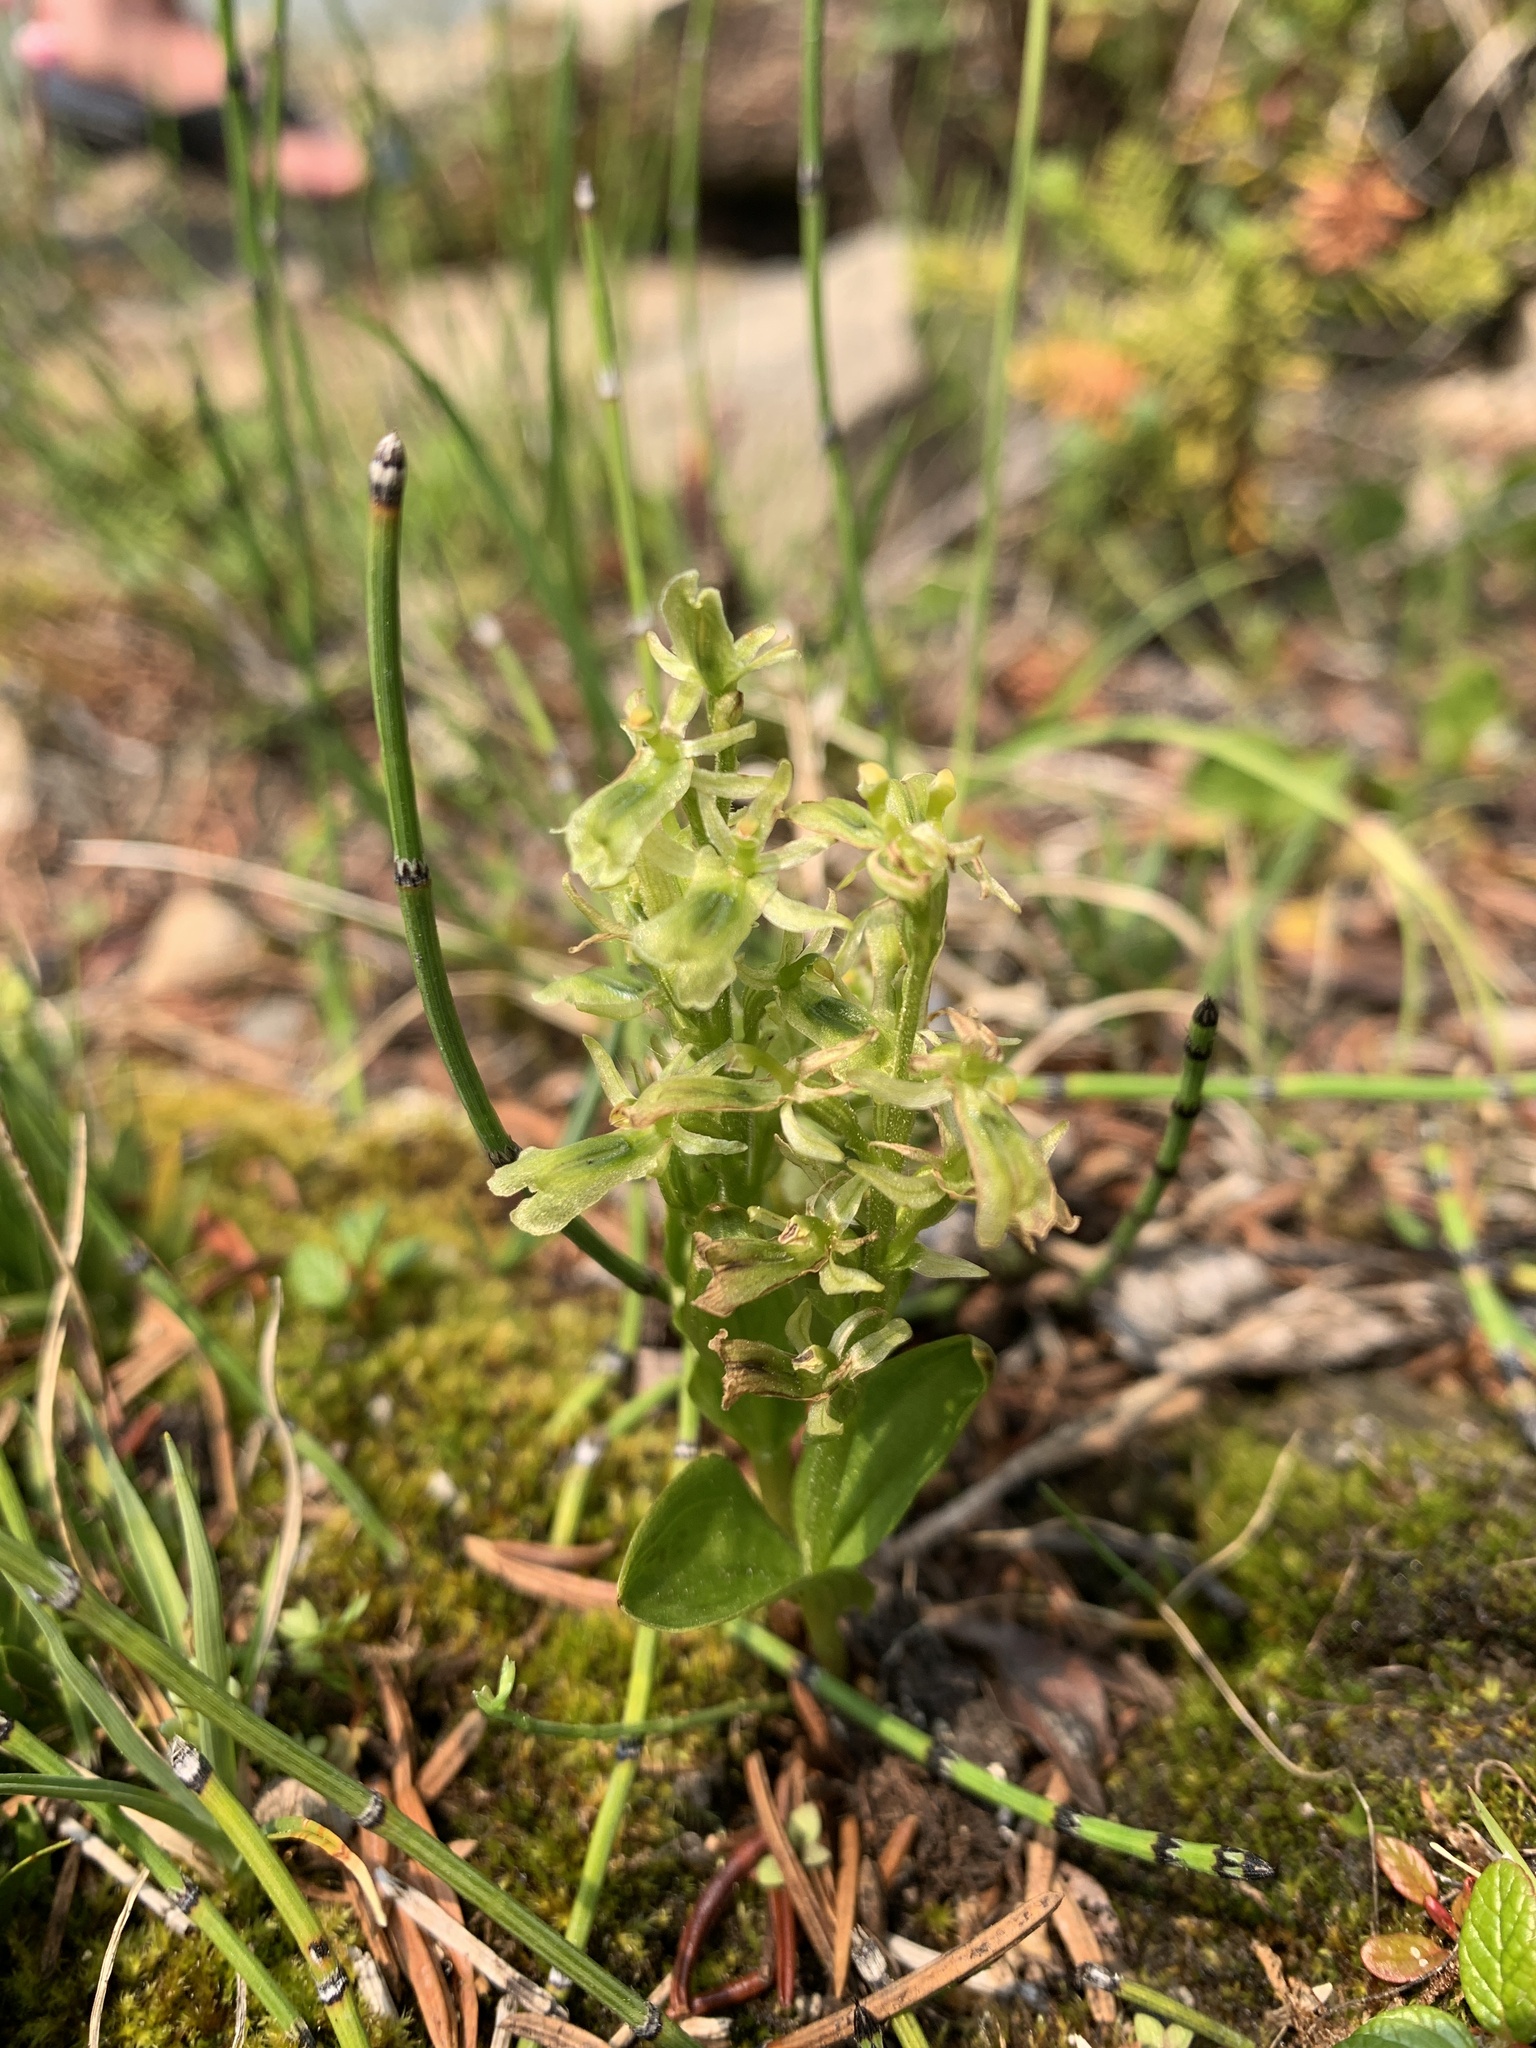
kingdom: Plantae
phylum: Tracheophyta
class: Liliopsida
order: Asparagales
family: Orchidaceae
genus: Neottia
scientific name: Neottia borealis
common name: Northern twayblade
